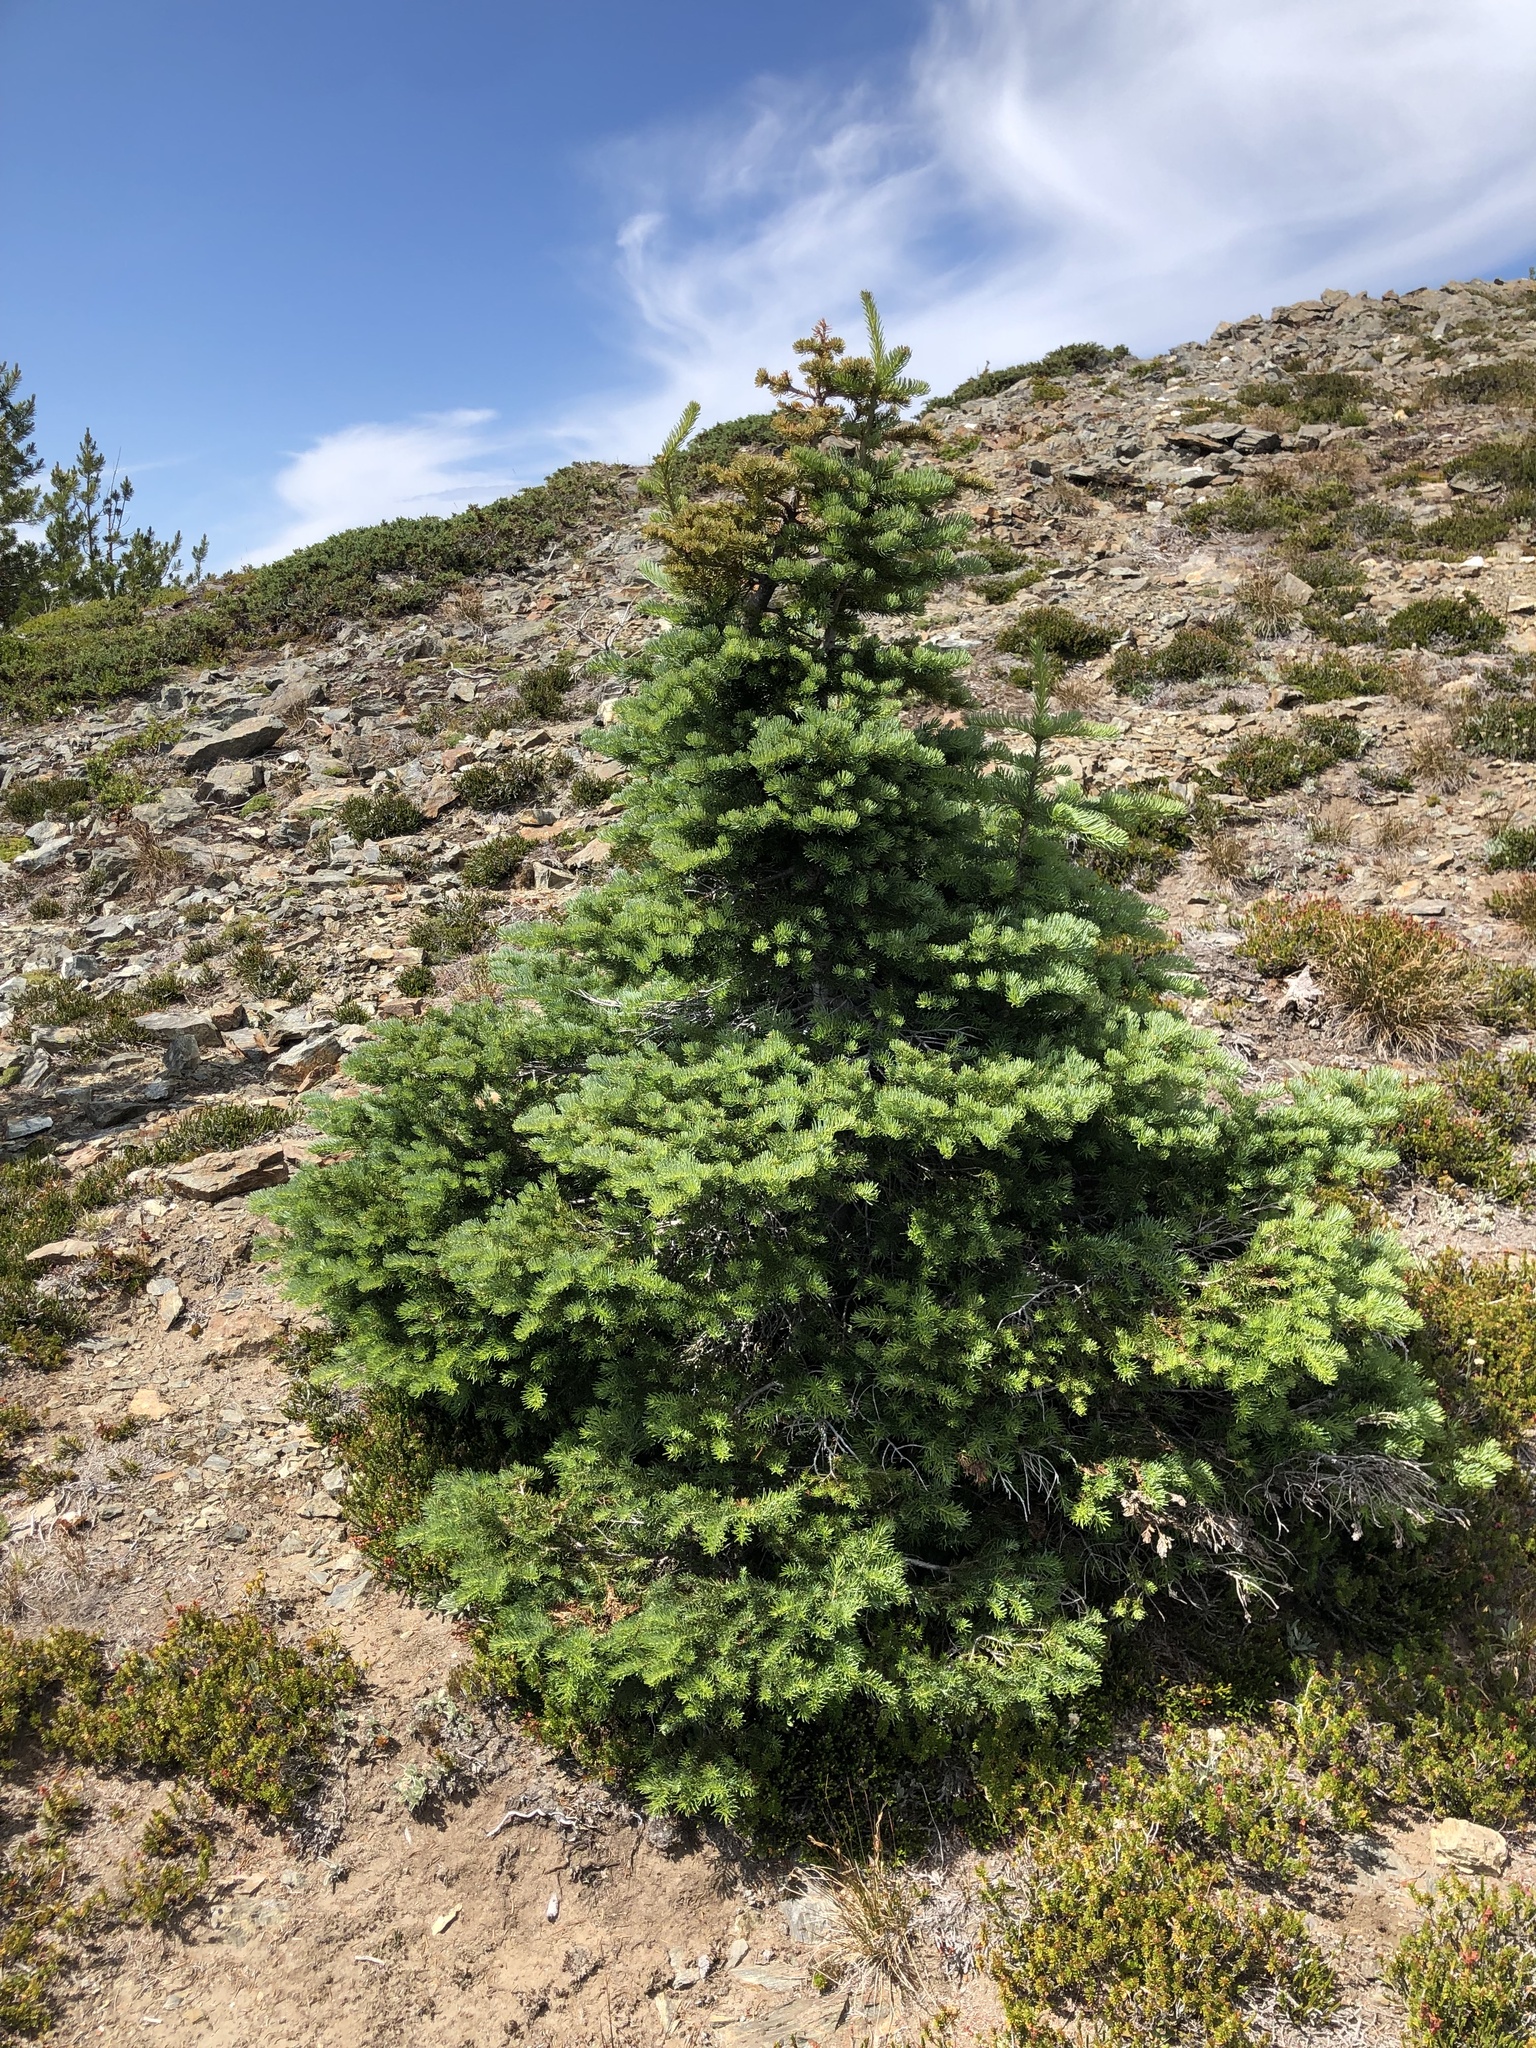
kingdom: Plantae
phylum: Tracheophyta
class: Pinopsida
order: Pinales
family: Pinaceae
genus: Abies
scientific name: Abies lasiocarpa
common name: Subalpine fir
